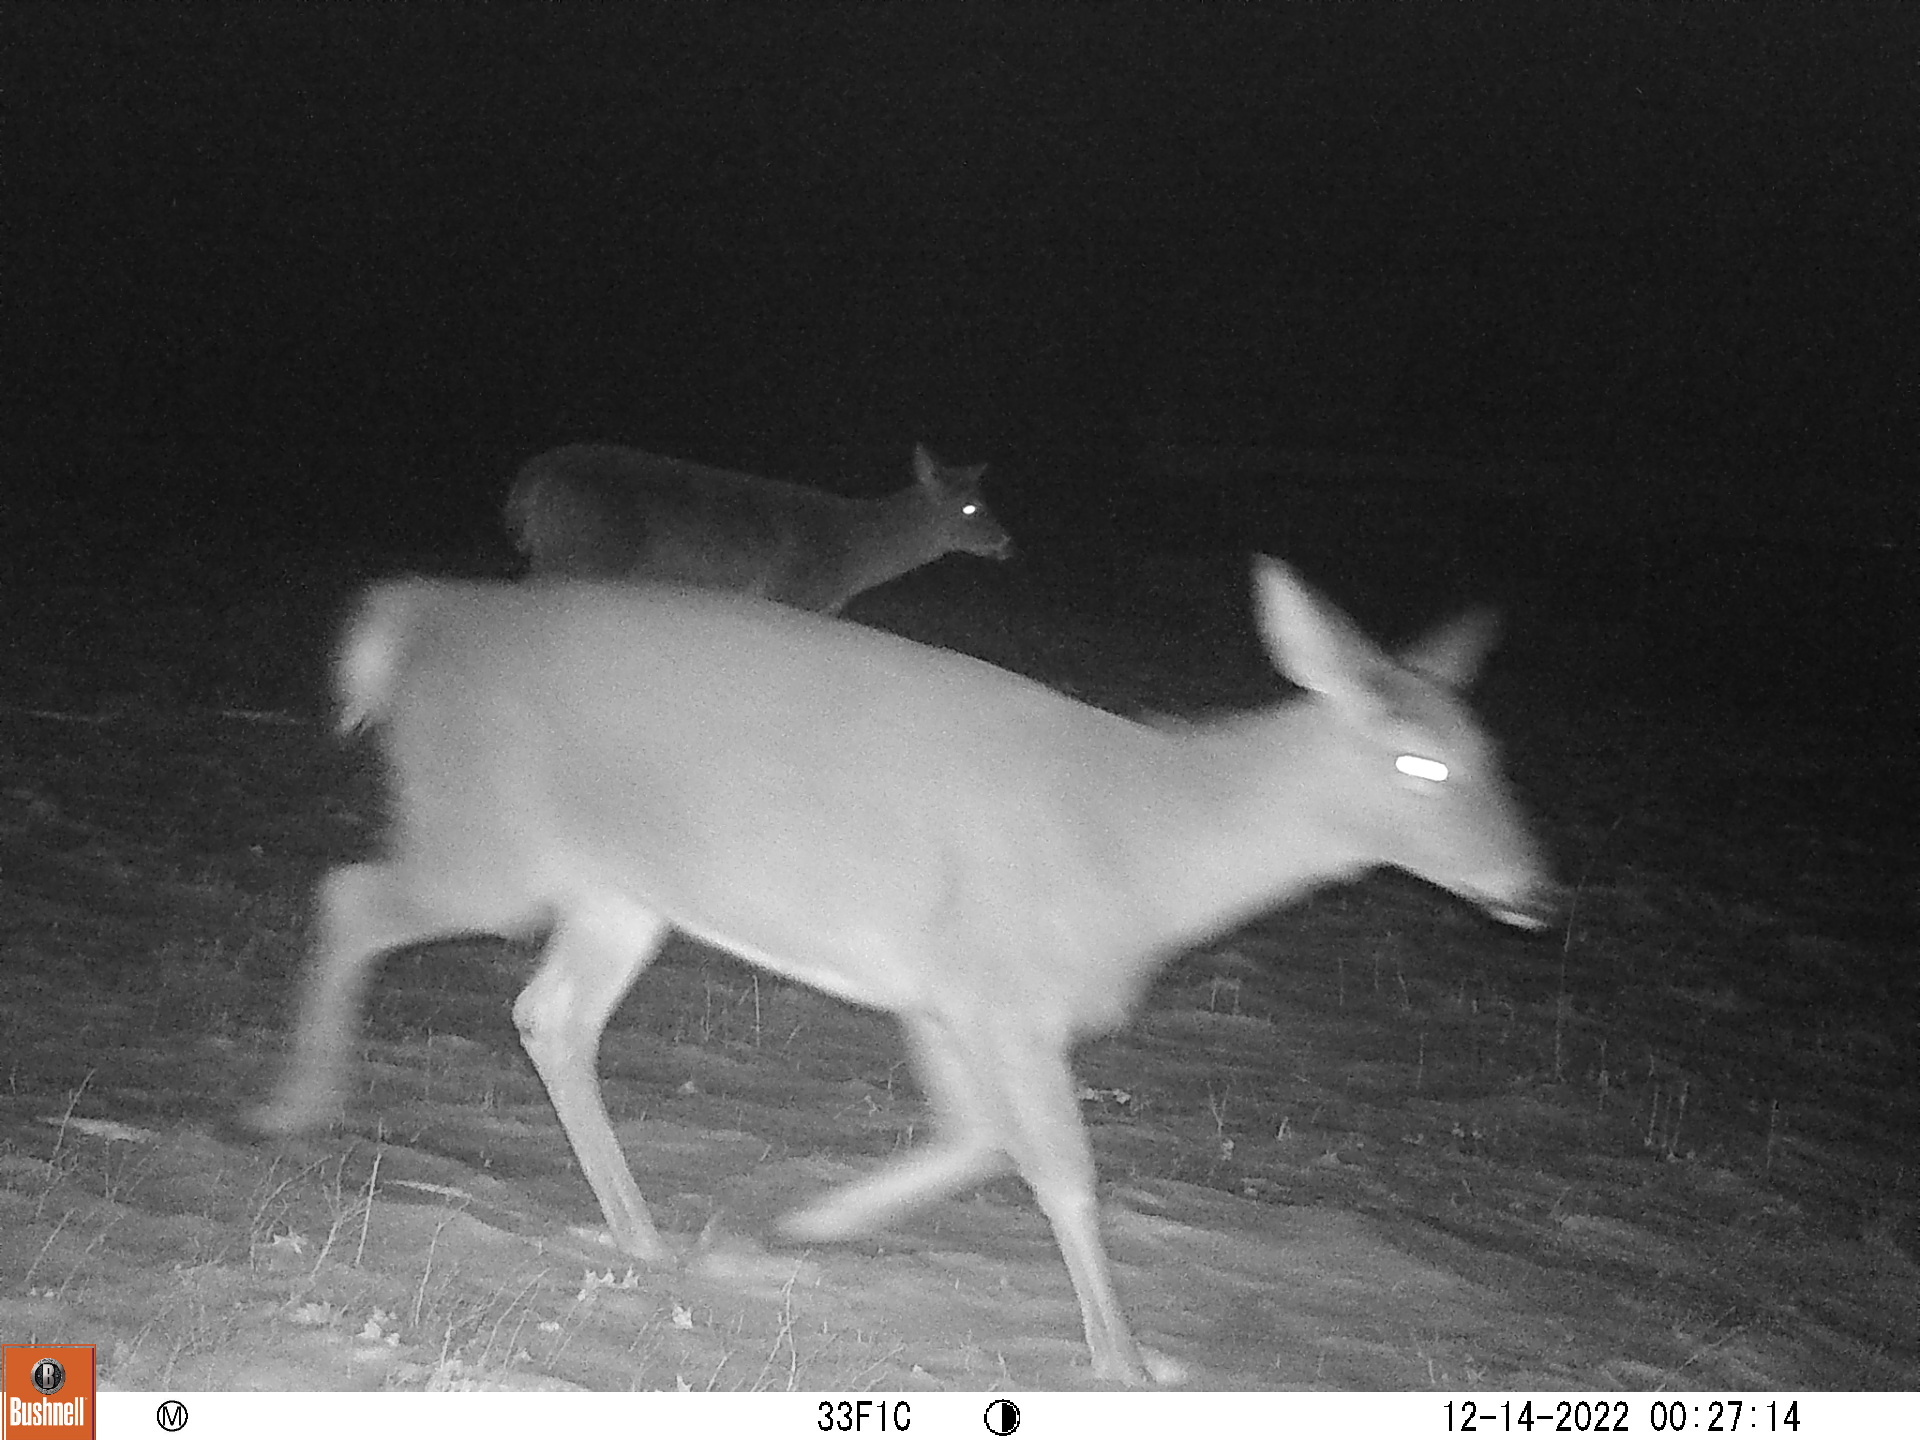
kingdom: Animalia
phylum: Chordata
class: Mammalia
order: Artiodactyla
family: Cervidae
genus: Odocoileus
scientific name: Odocoileus virginianus
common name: White-tailed deer
